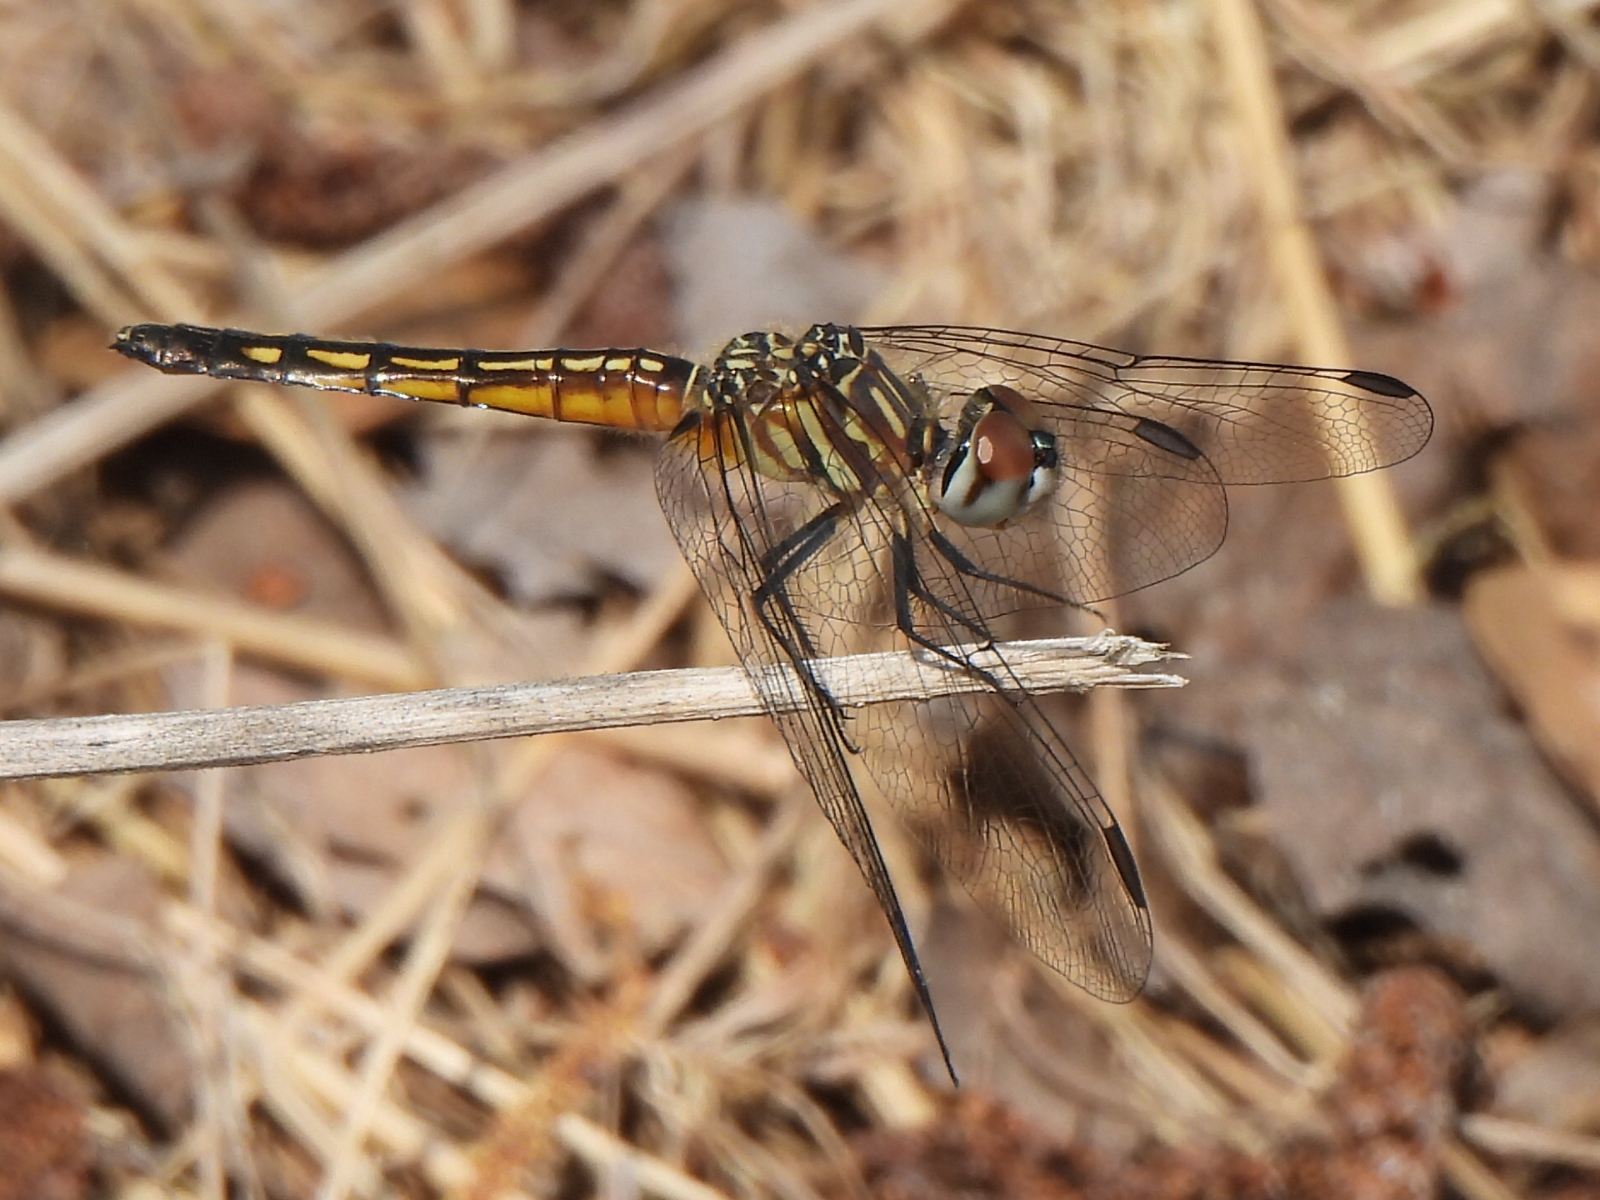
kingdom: Animalia
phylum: Arthropoda
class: Insecta
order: Odonata
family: Libellulidae
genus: Pachydiplax
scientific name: Pachydiplax longipennis
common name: Blue dasher
